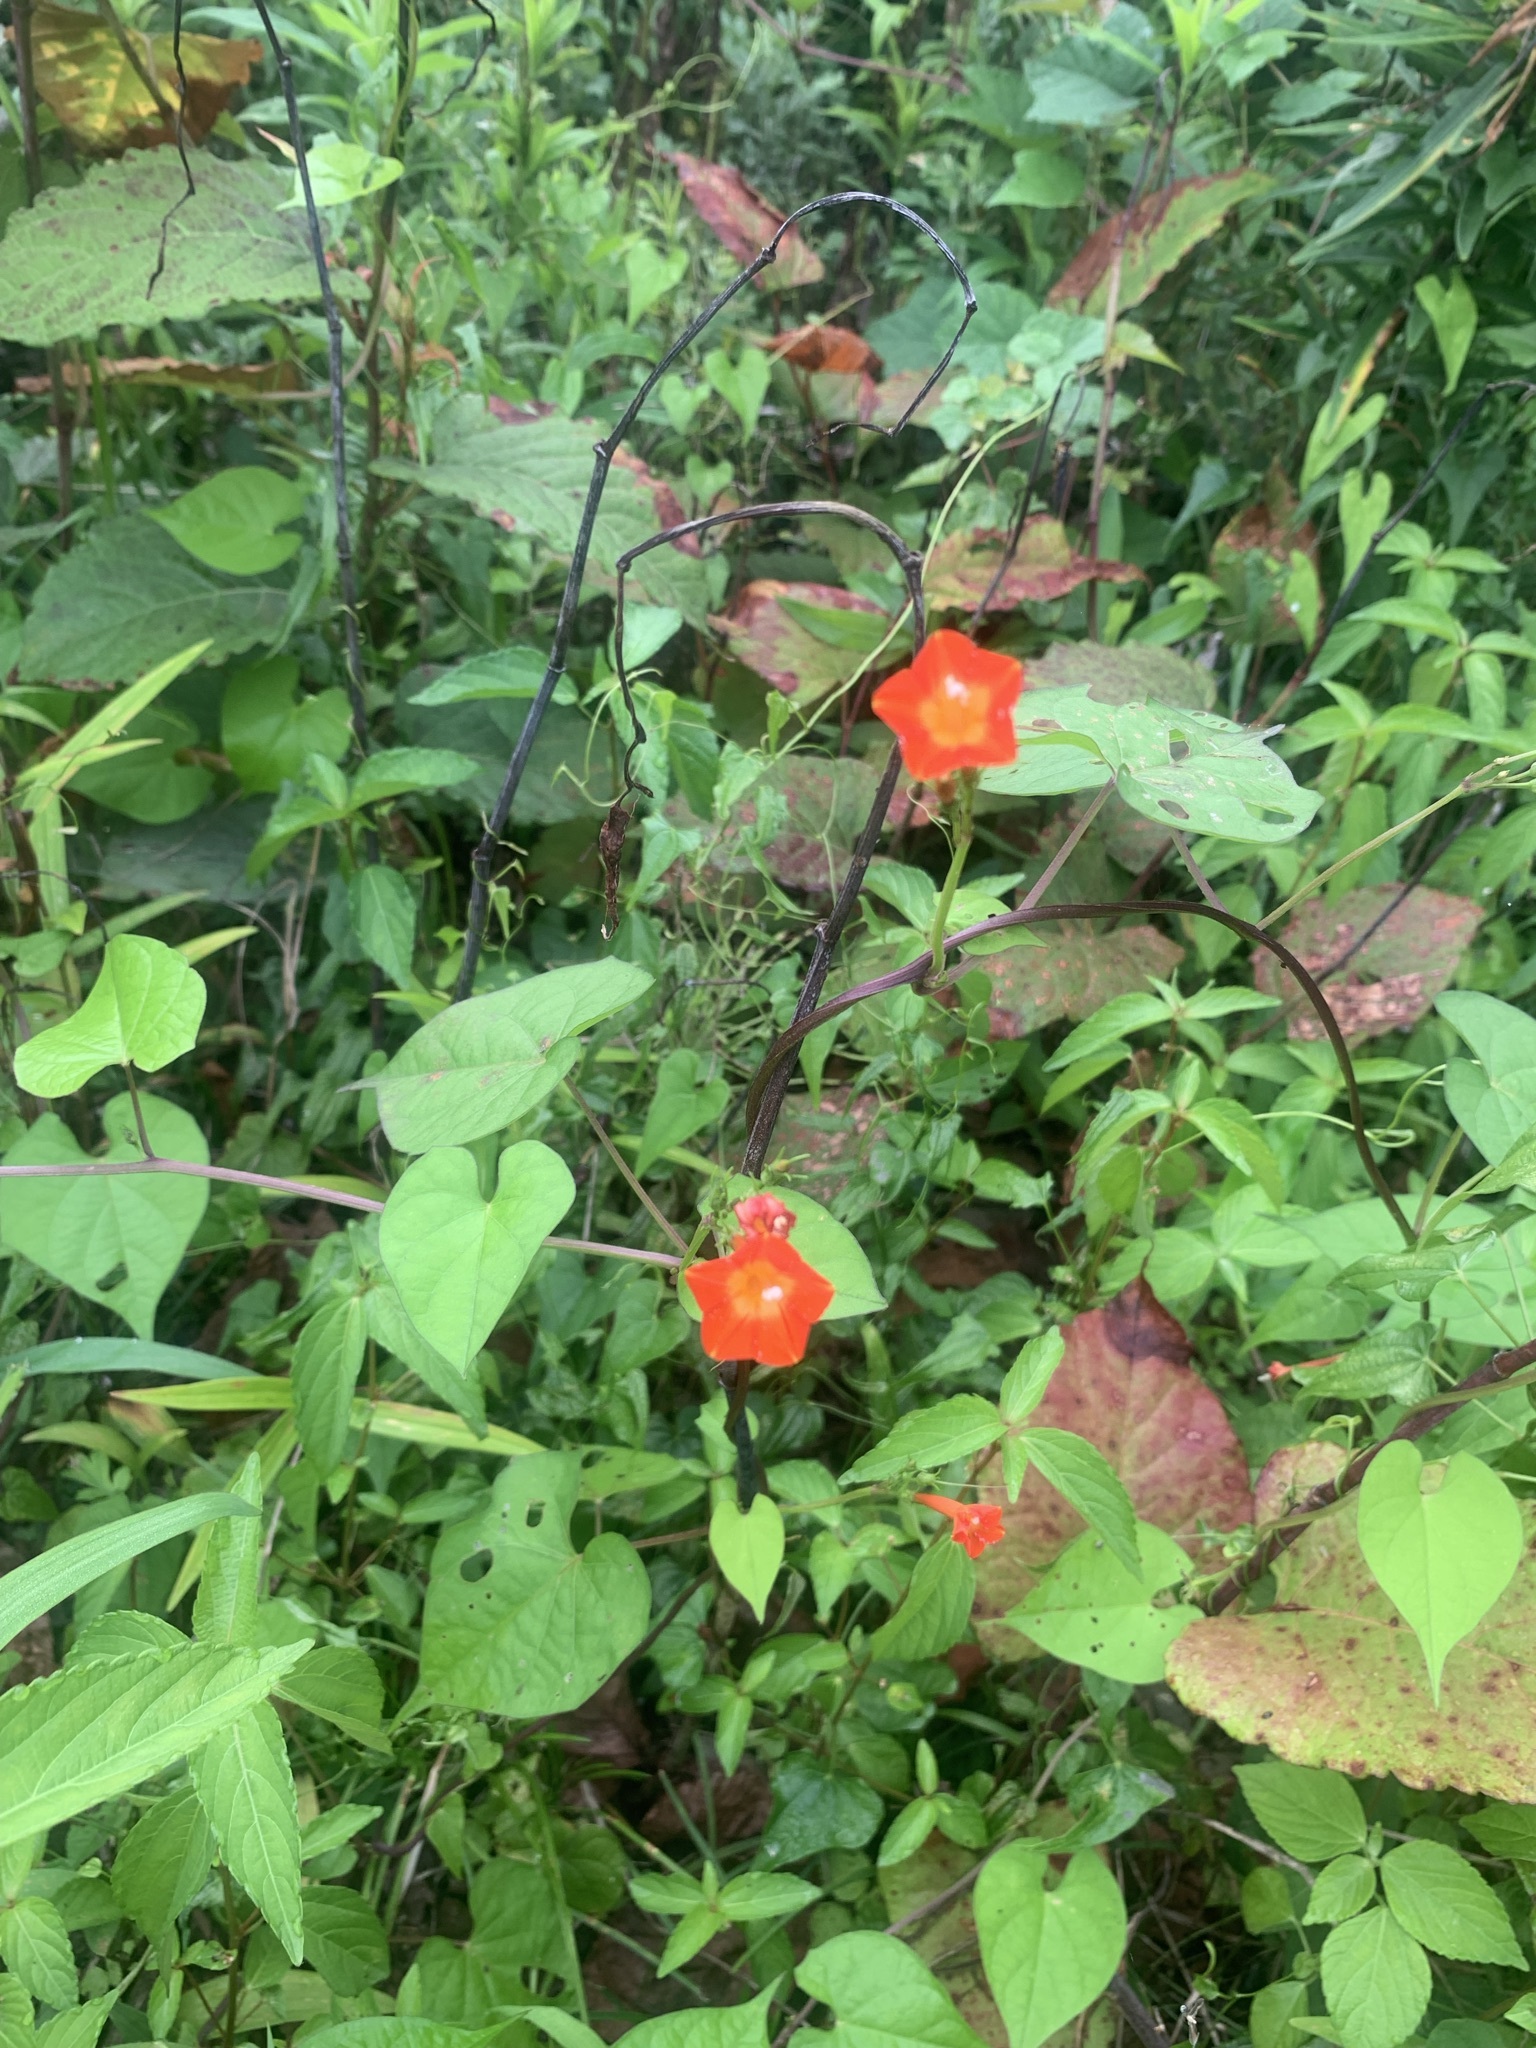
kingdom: Plantae
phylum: Tracheophyta
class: Magnoliopsida
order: Solanales
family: Convolvulaceae
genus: Ipomoea
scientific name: Ipomoea coccinea
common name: Red morning-glory
